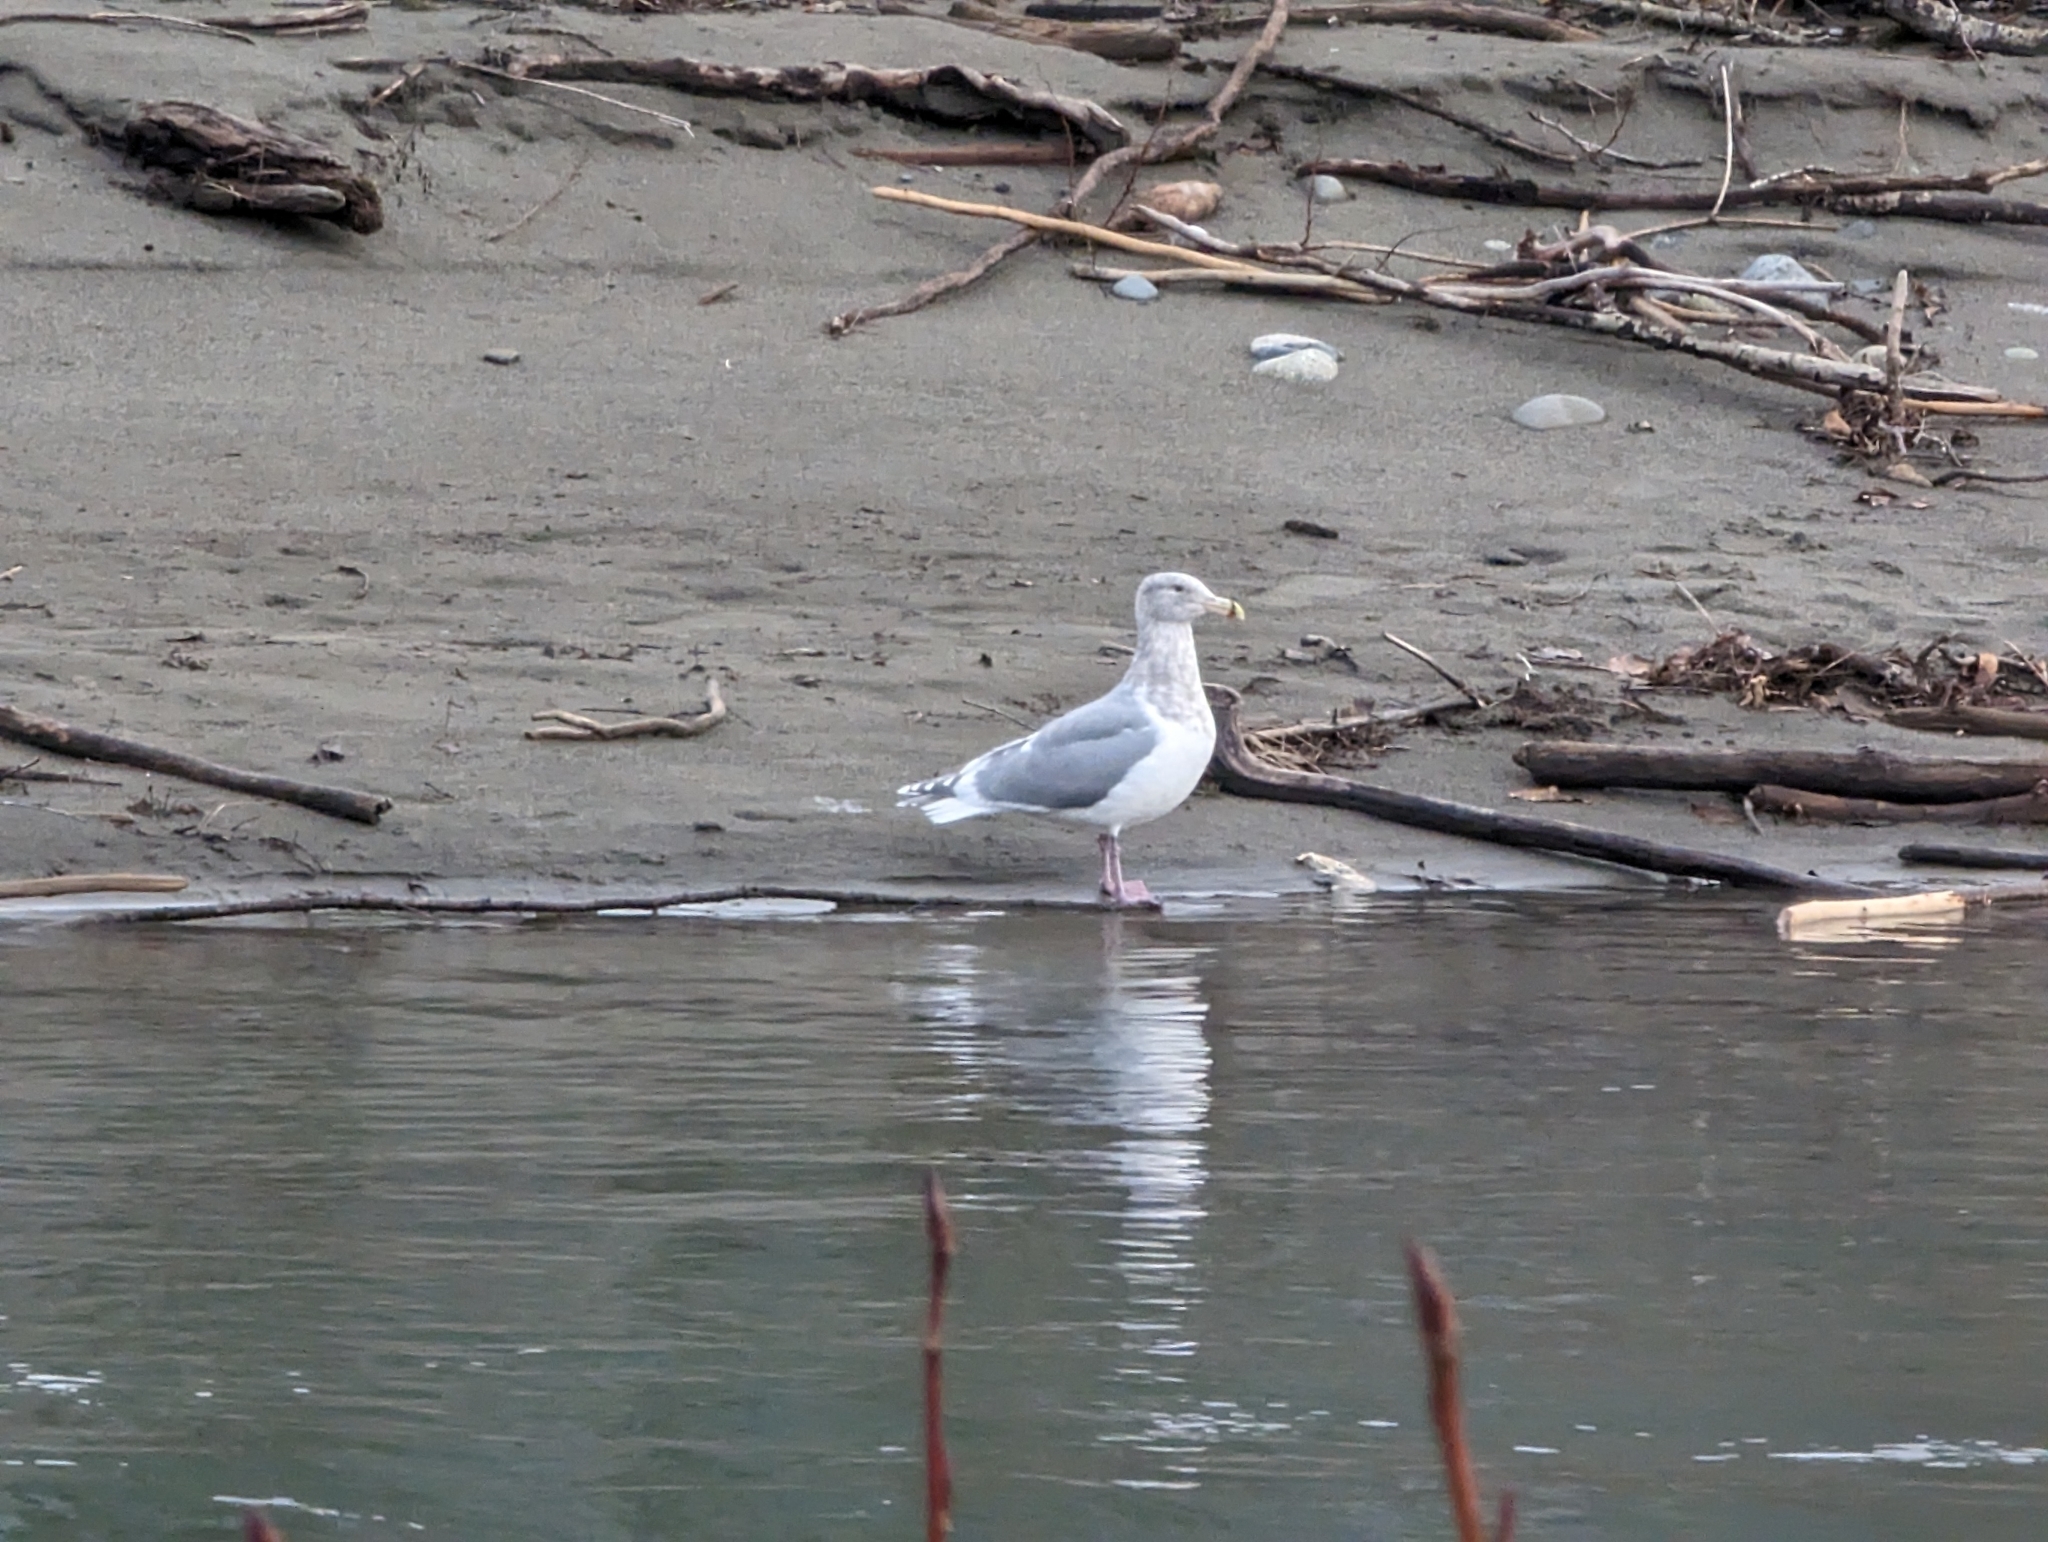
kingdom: Animalia
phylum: Chordata
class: Aves
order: Charadriiformes
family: Laridae
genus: Larus
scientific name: Larus glaucescens
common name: Glaucous-winged gull
